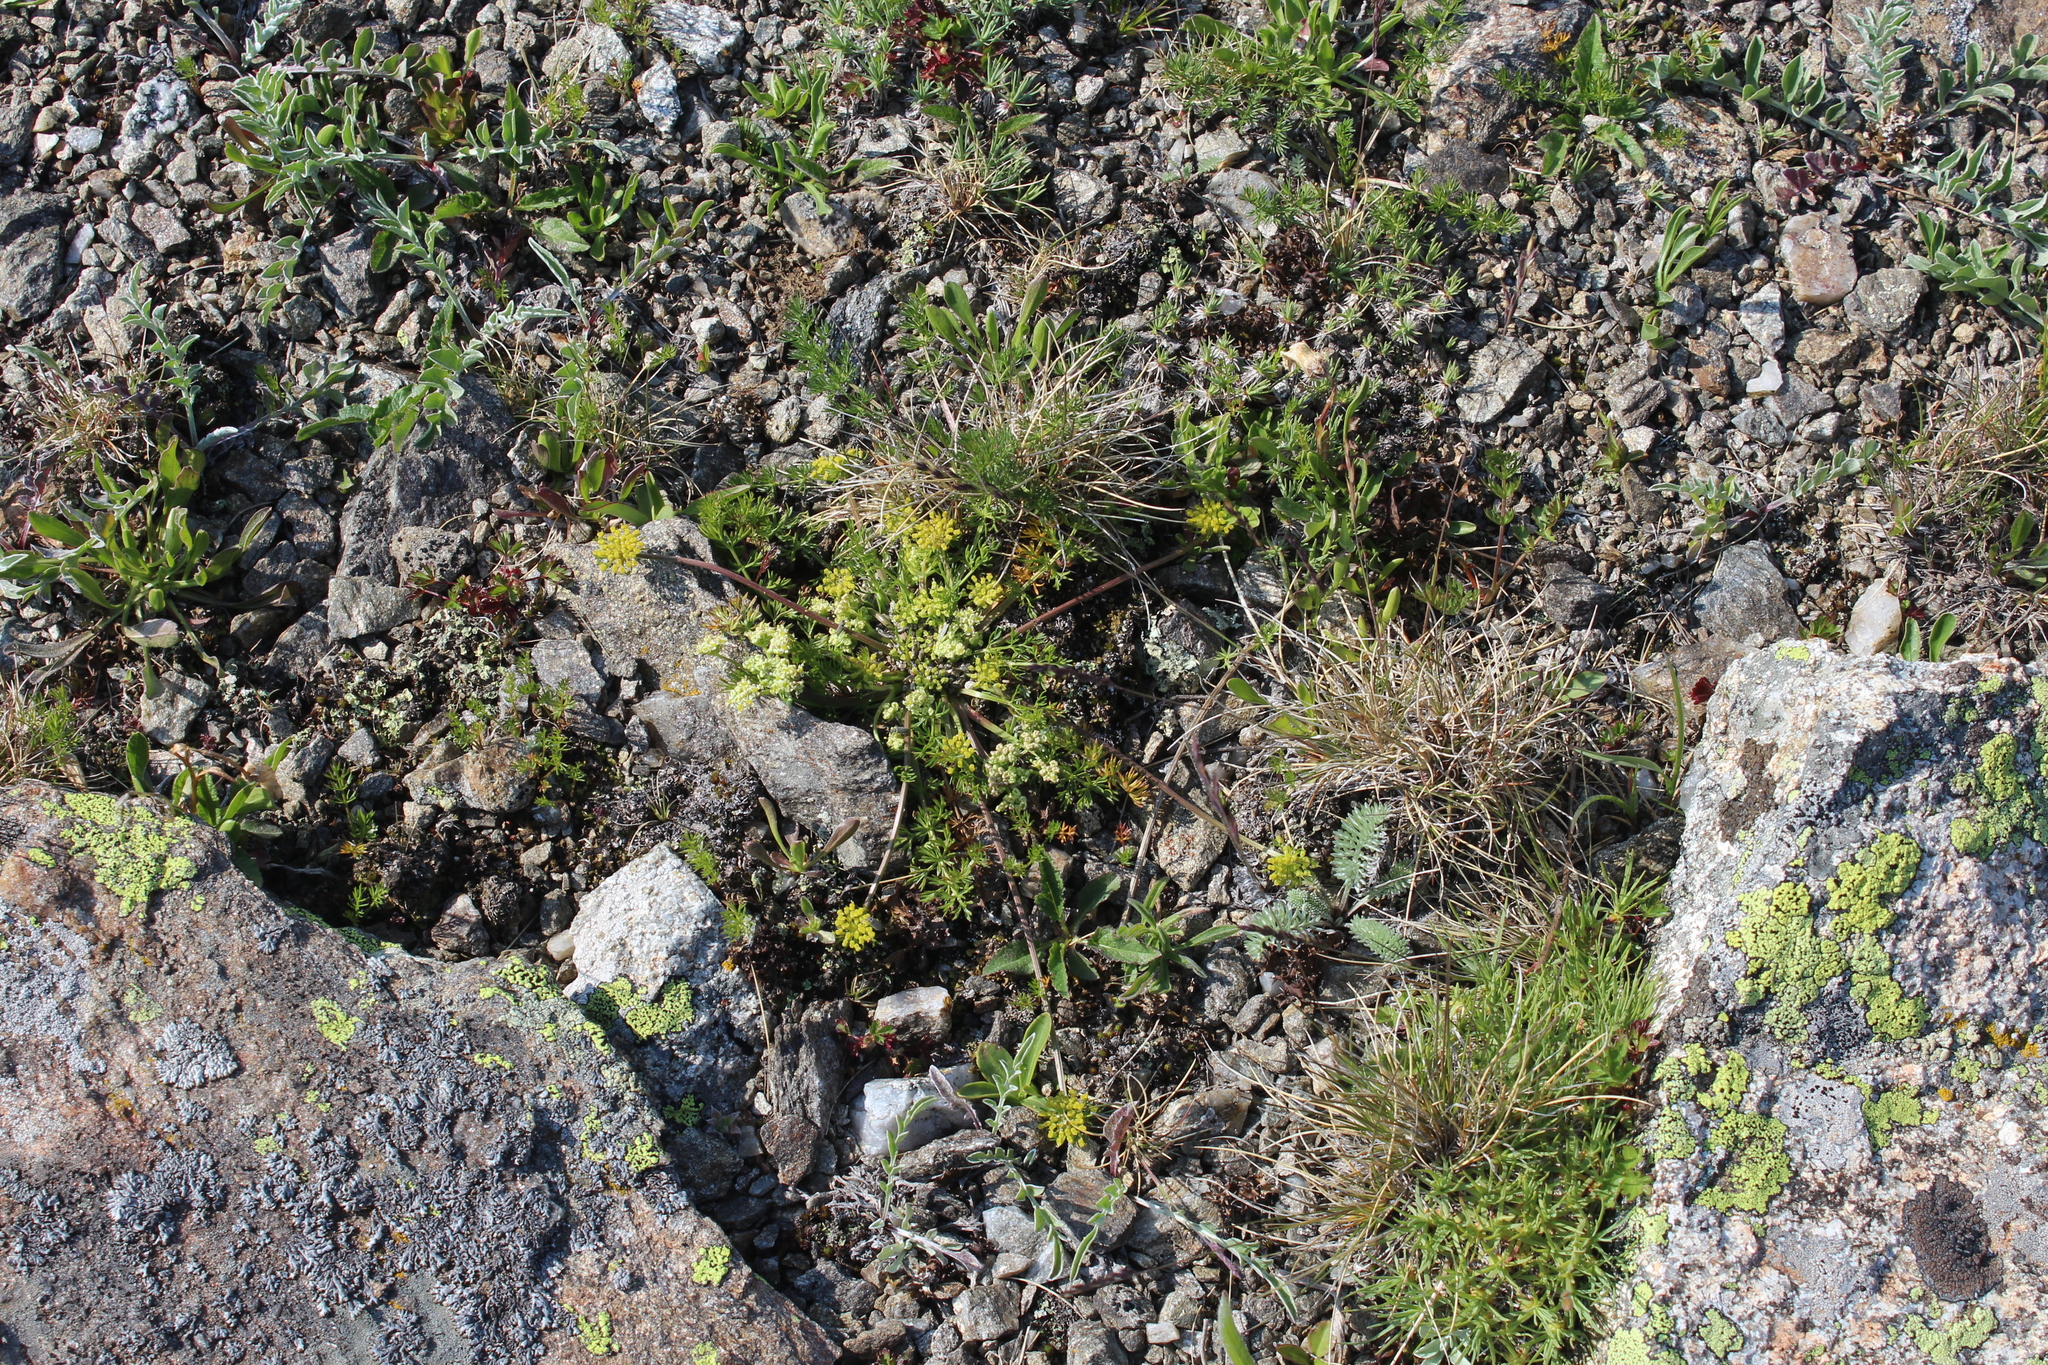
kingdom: Plantae
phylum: Tracheophyta
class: Magnoliopsida
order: Apiales
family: Apiaceae
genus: Chamaesciadium
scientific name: Chamaesciadium acaule
